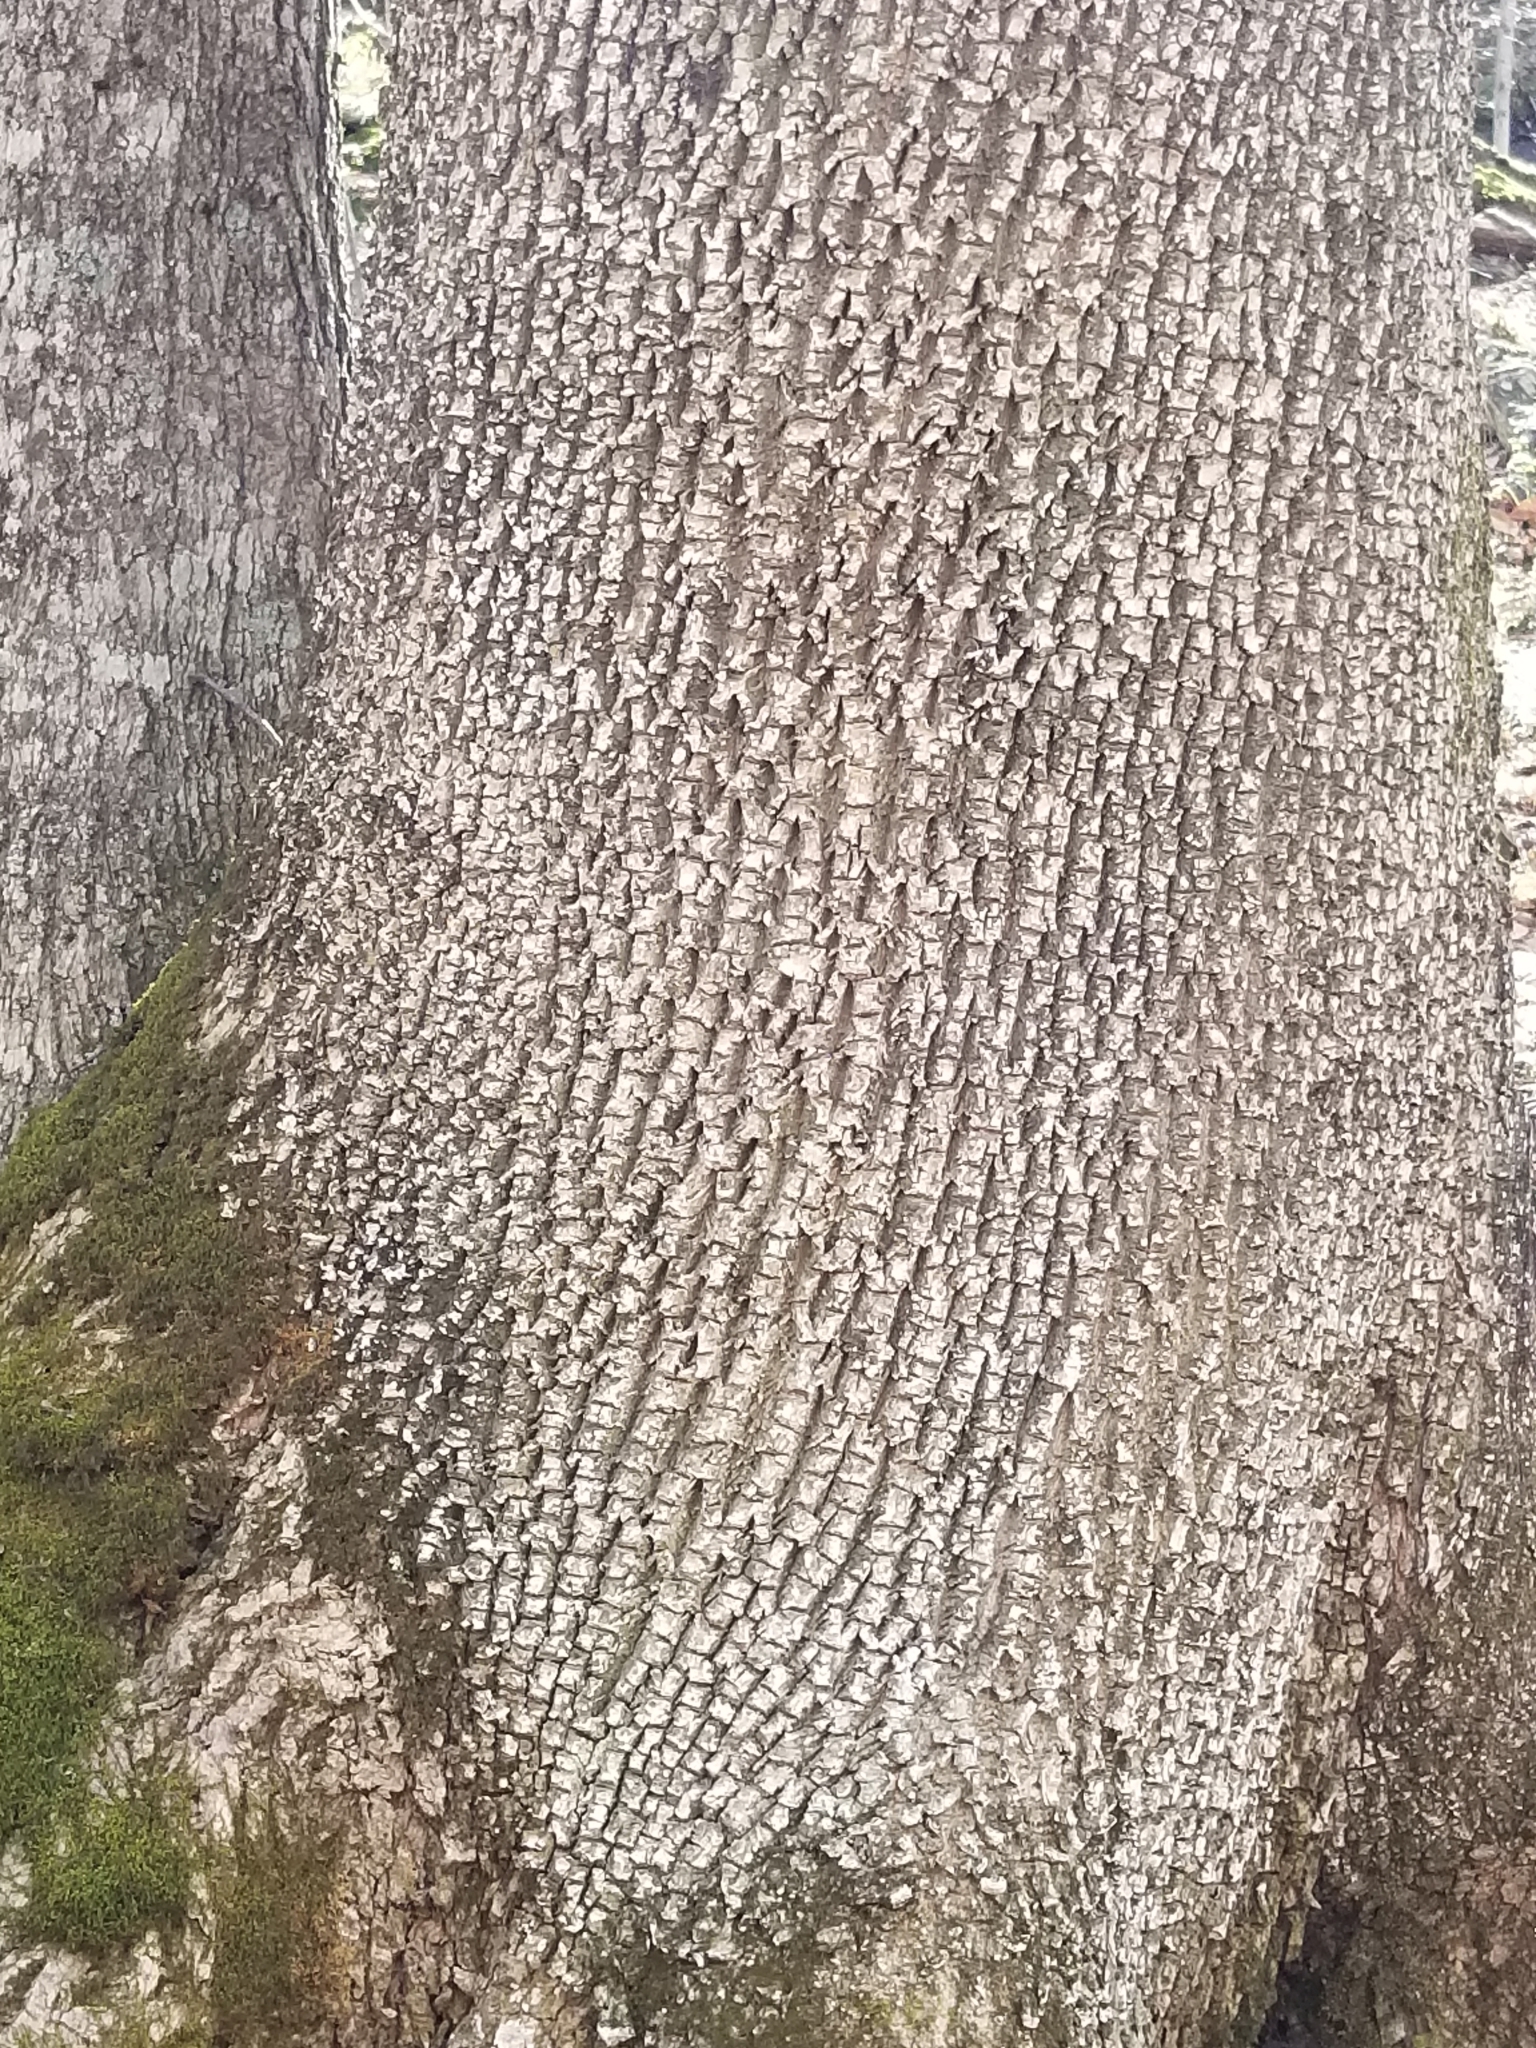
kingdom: Plantae
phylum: Tracheophyta
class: Magnoliopsida
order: Lamiales
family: Oleaceae
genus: Fraxinus
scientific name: Fraxinus americana
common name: White ash
